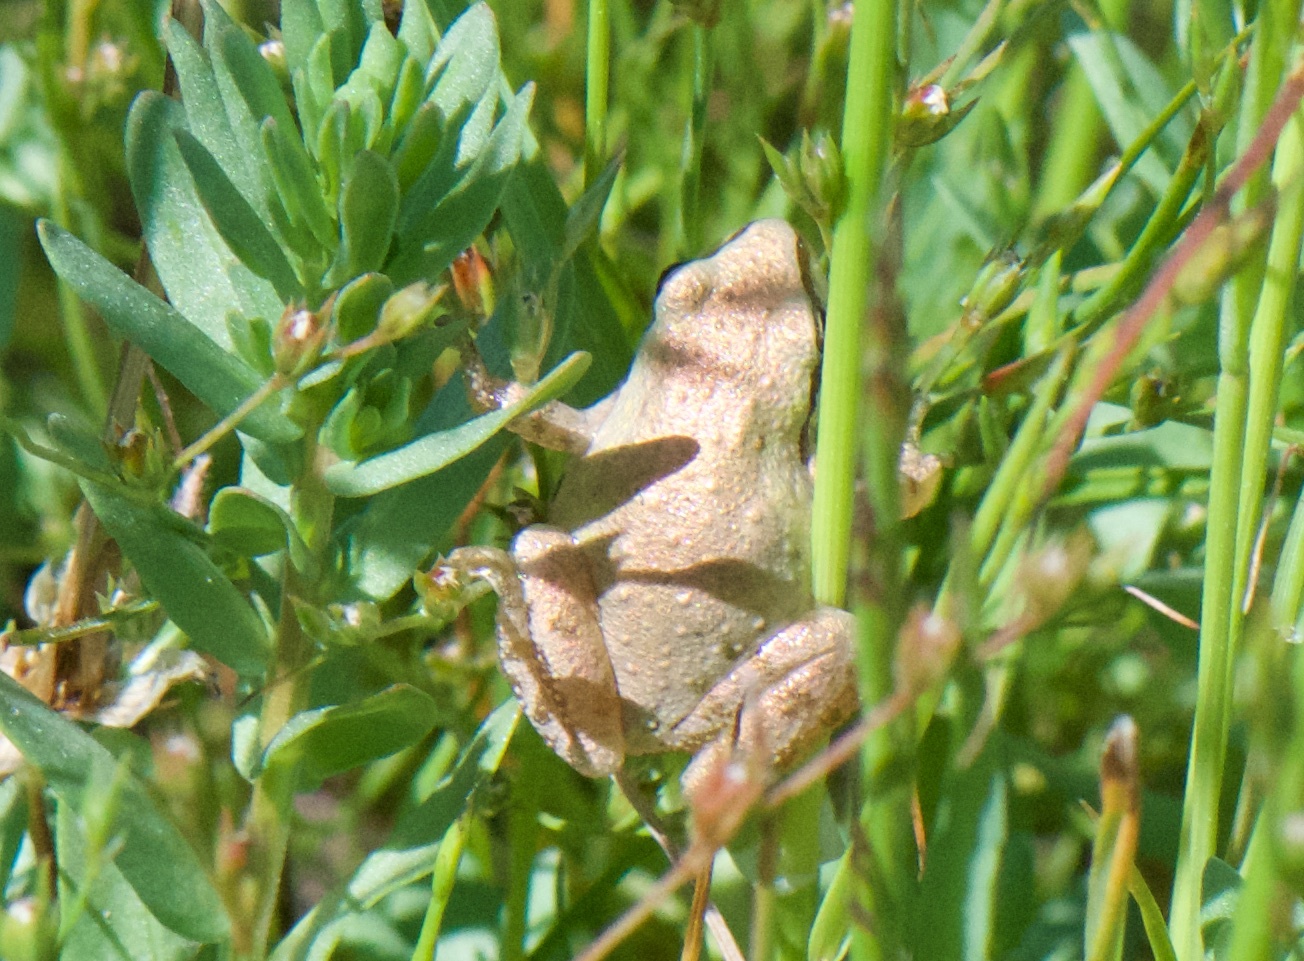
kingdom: Animalia
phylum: Chordata
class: Amphibia
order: Anura
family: Hylidae
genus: Pseudacris
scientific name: Pseudacris regilla
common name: Pacific chorus frog
